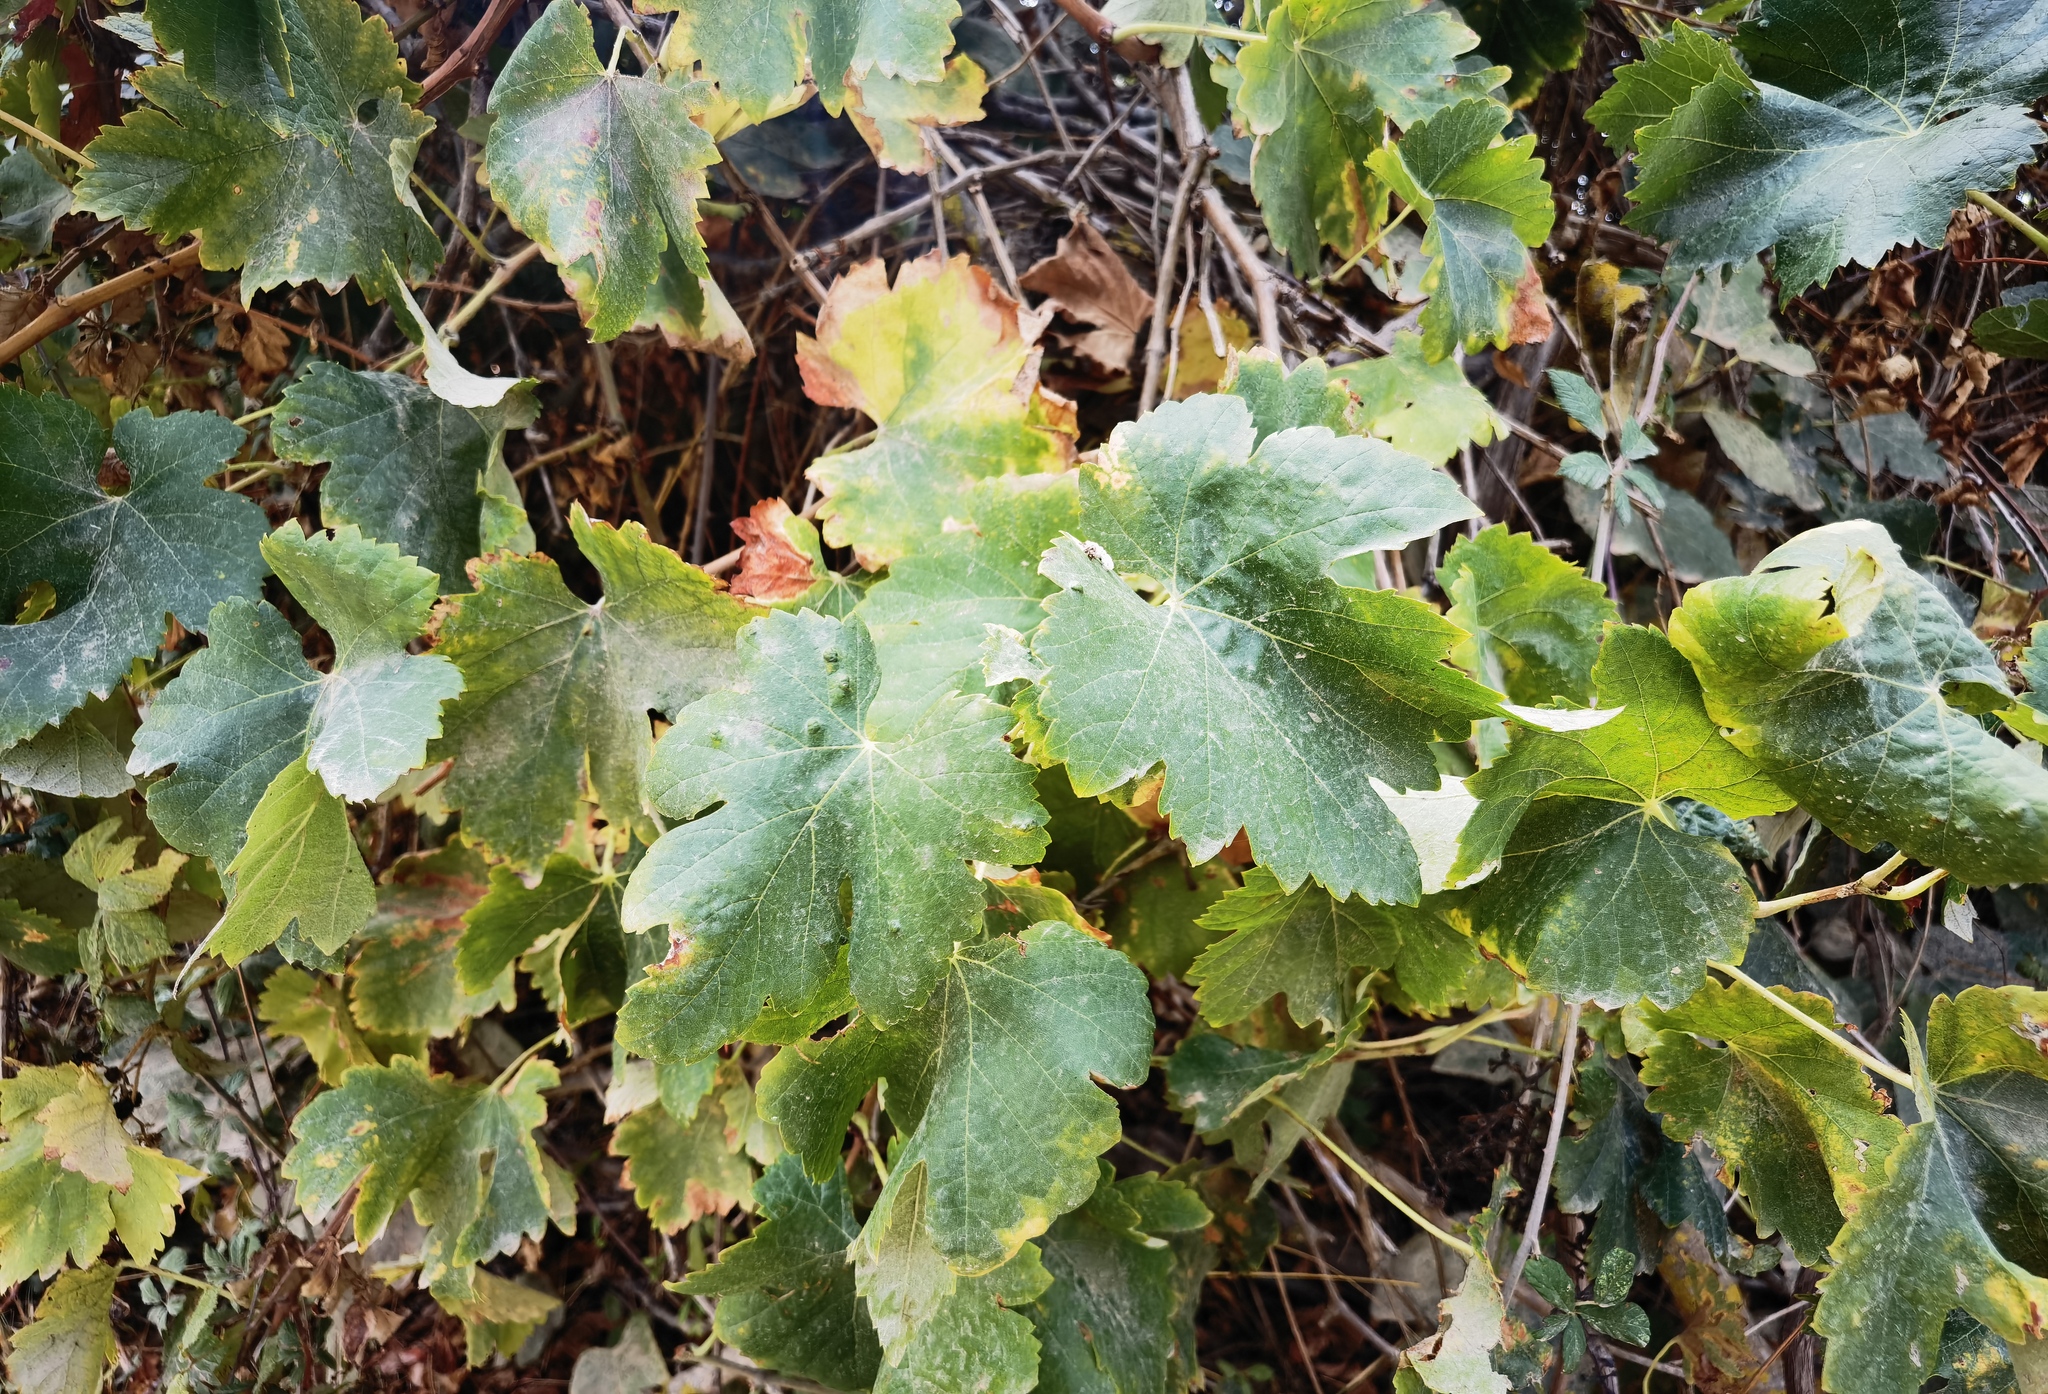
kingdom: Plantae
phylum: Tracheophyta
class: Magnoliopsida
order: Vitales
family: Vitaceae
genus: Vitis
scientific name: Vitis vinifera
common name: Grape-vine
